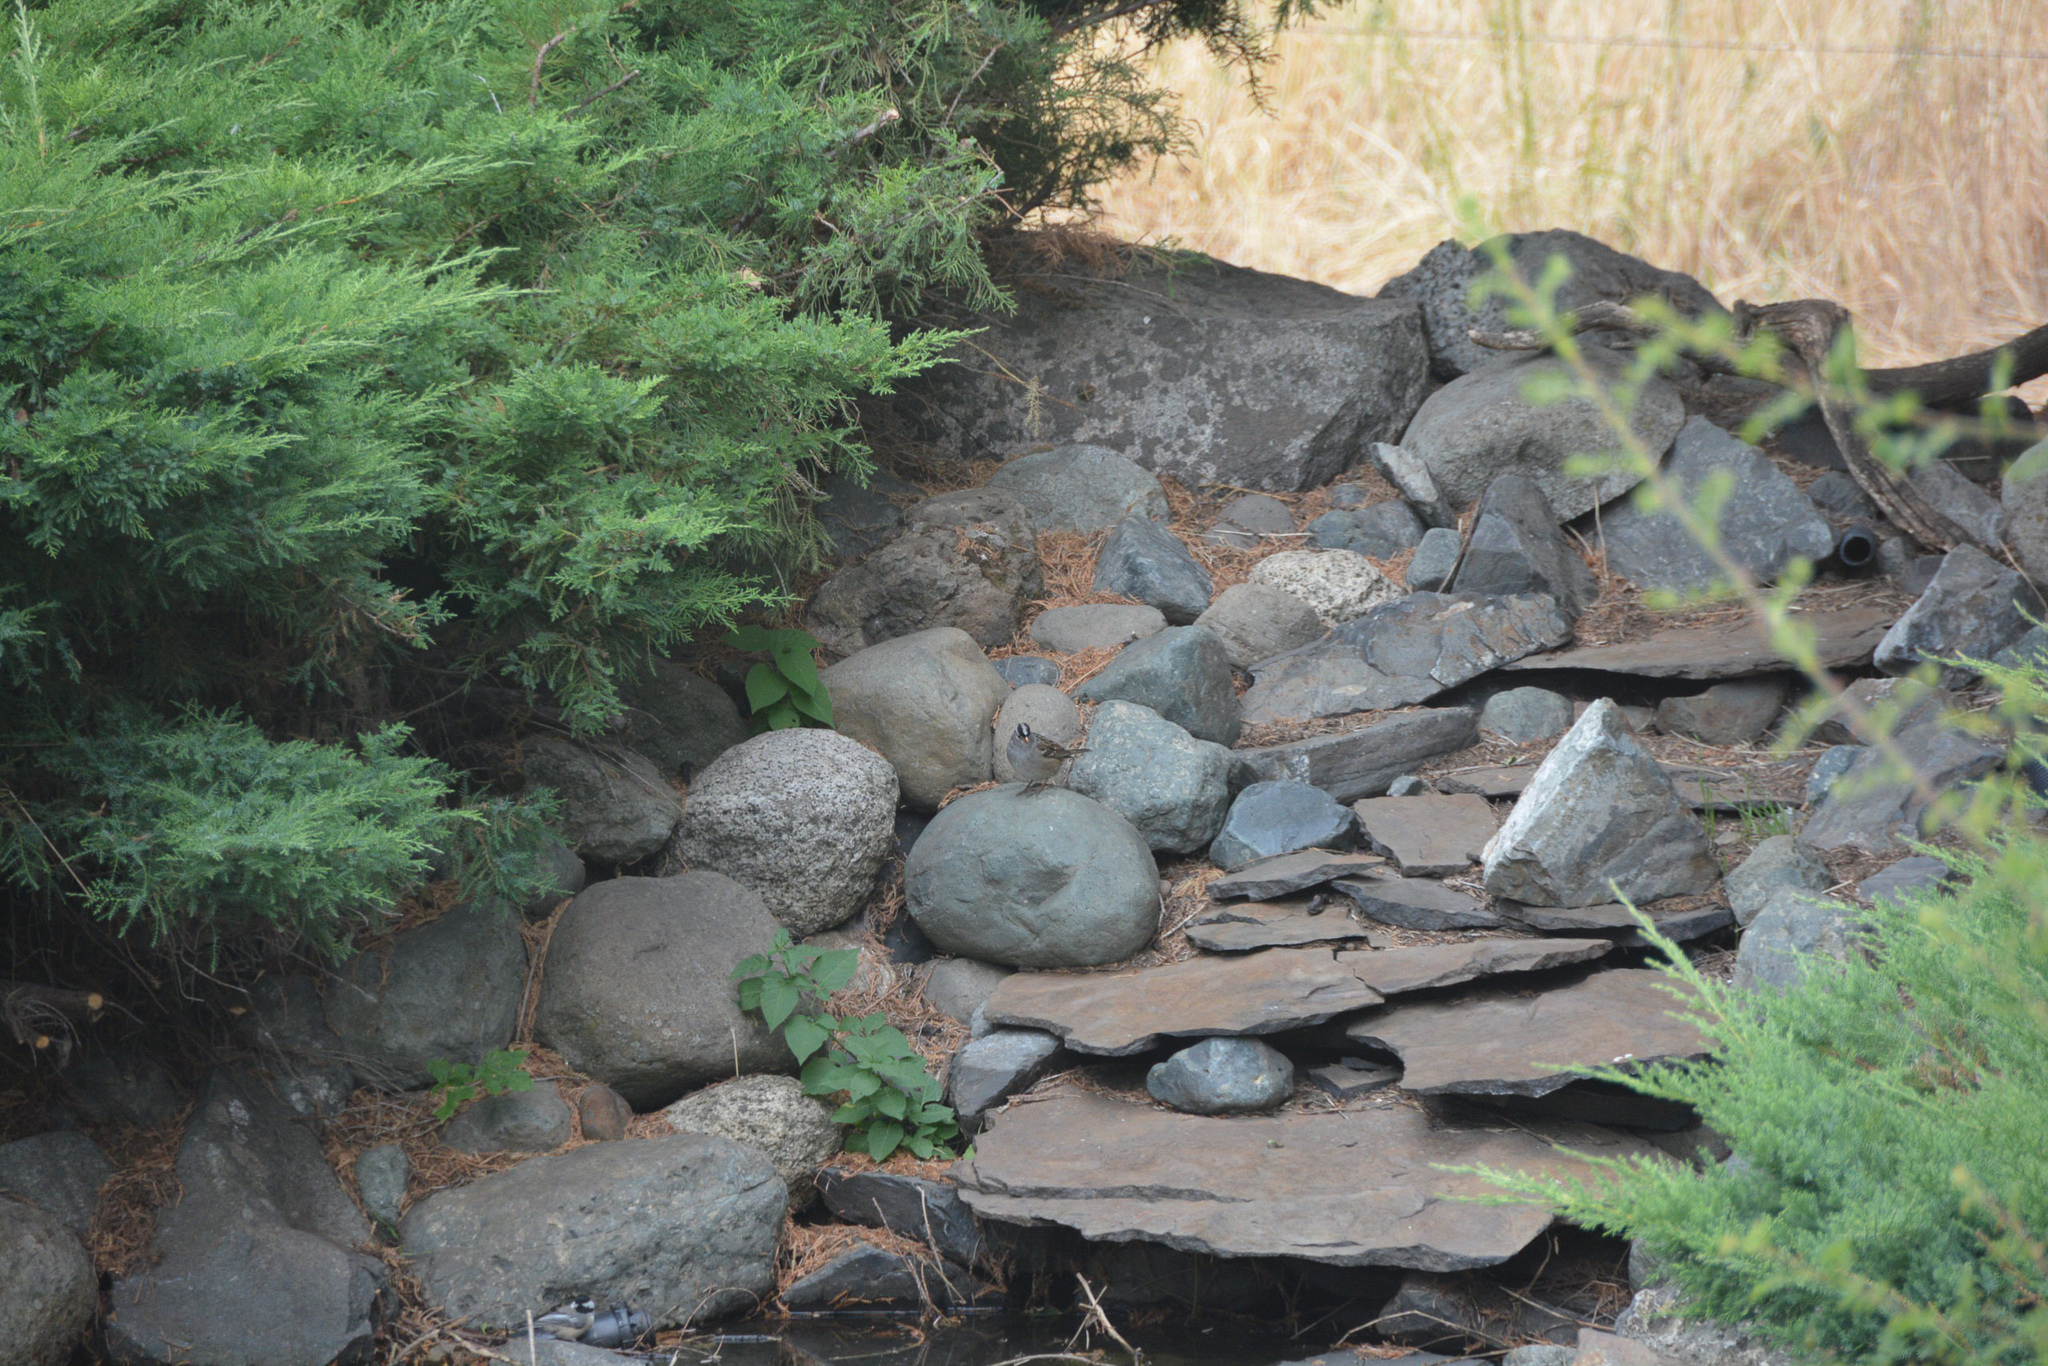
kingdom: Animalia
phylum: Chordata
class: Aves
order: Passeriformes
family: Passerellidae
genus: Zonotrichia
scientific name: Zonotrichia leucophrys
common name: White-crowned sparrow
